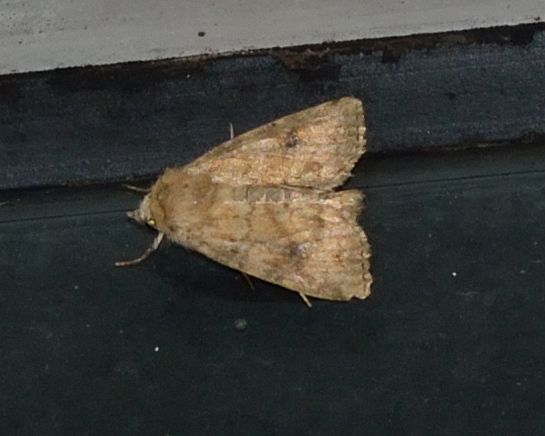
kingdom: Animalia
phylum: Arthropoda
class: Insecta
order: Lepidoptera
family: Noctuidae
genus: Atypha
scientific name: Atypha pulmonaris
